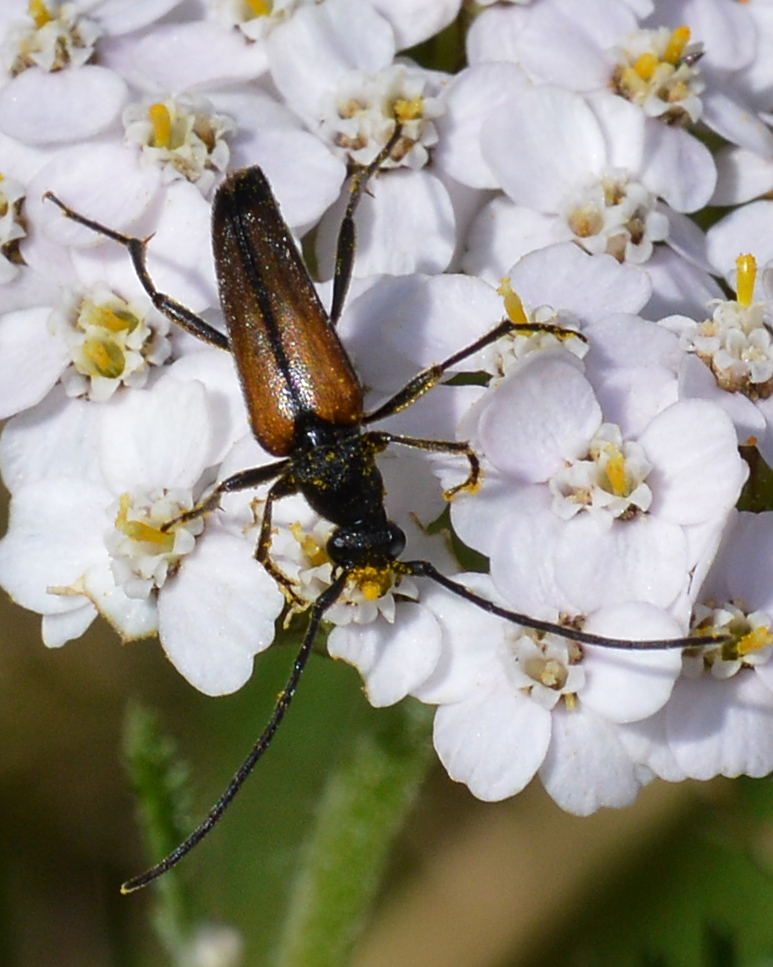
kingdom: Animalia
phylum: Arthropoda
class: Insecta
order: Coleoptera
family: Cerambycidae
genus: Stenurella
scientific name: Stenurella melanura
